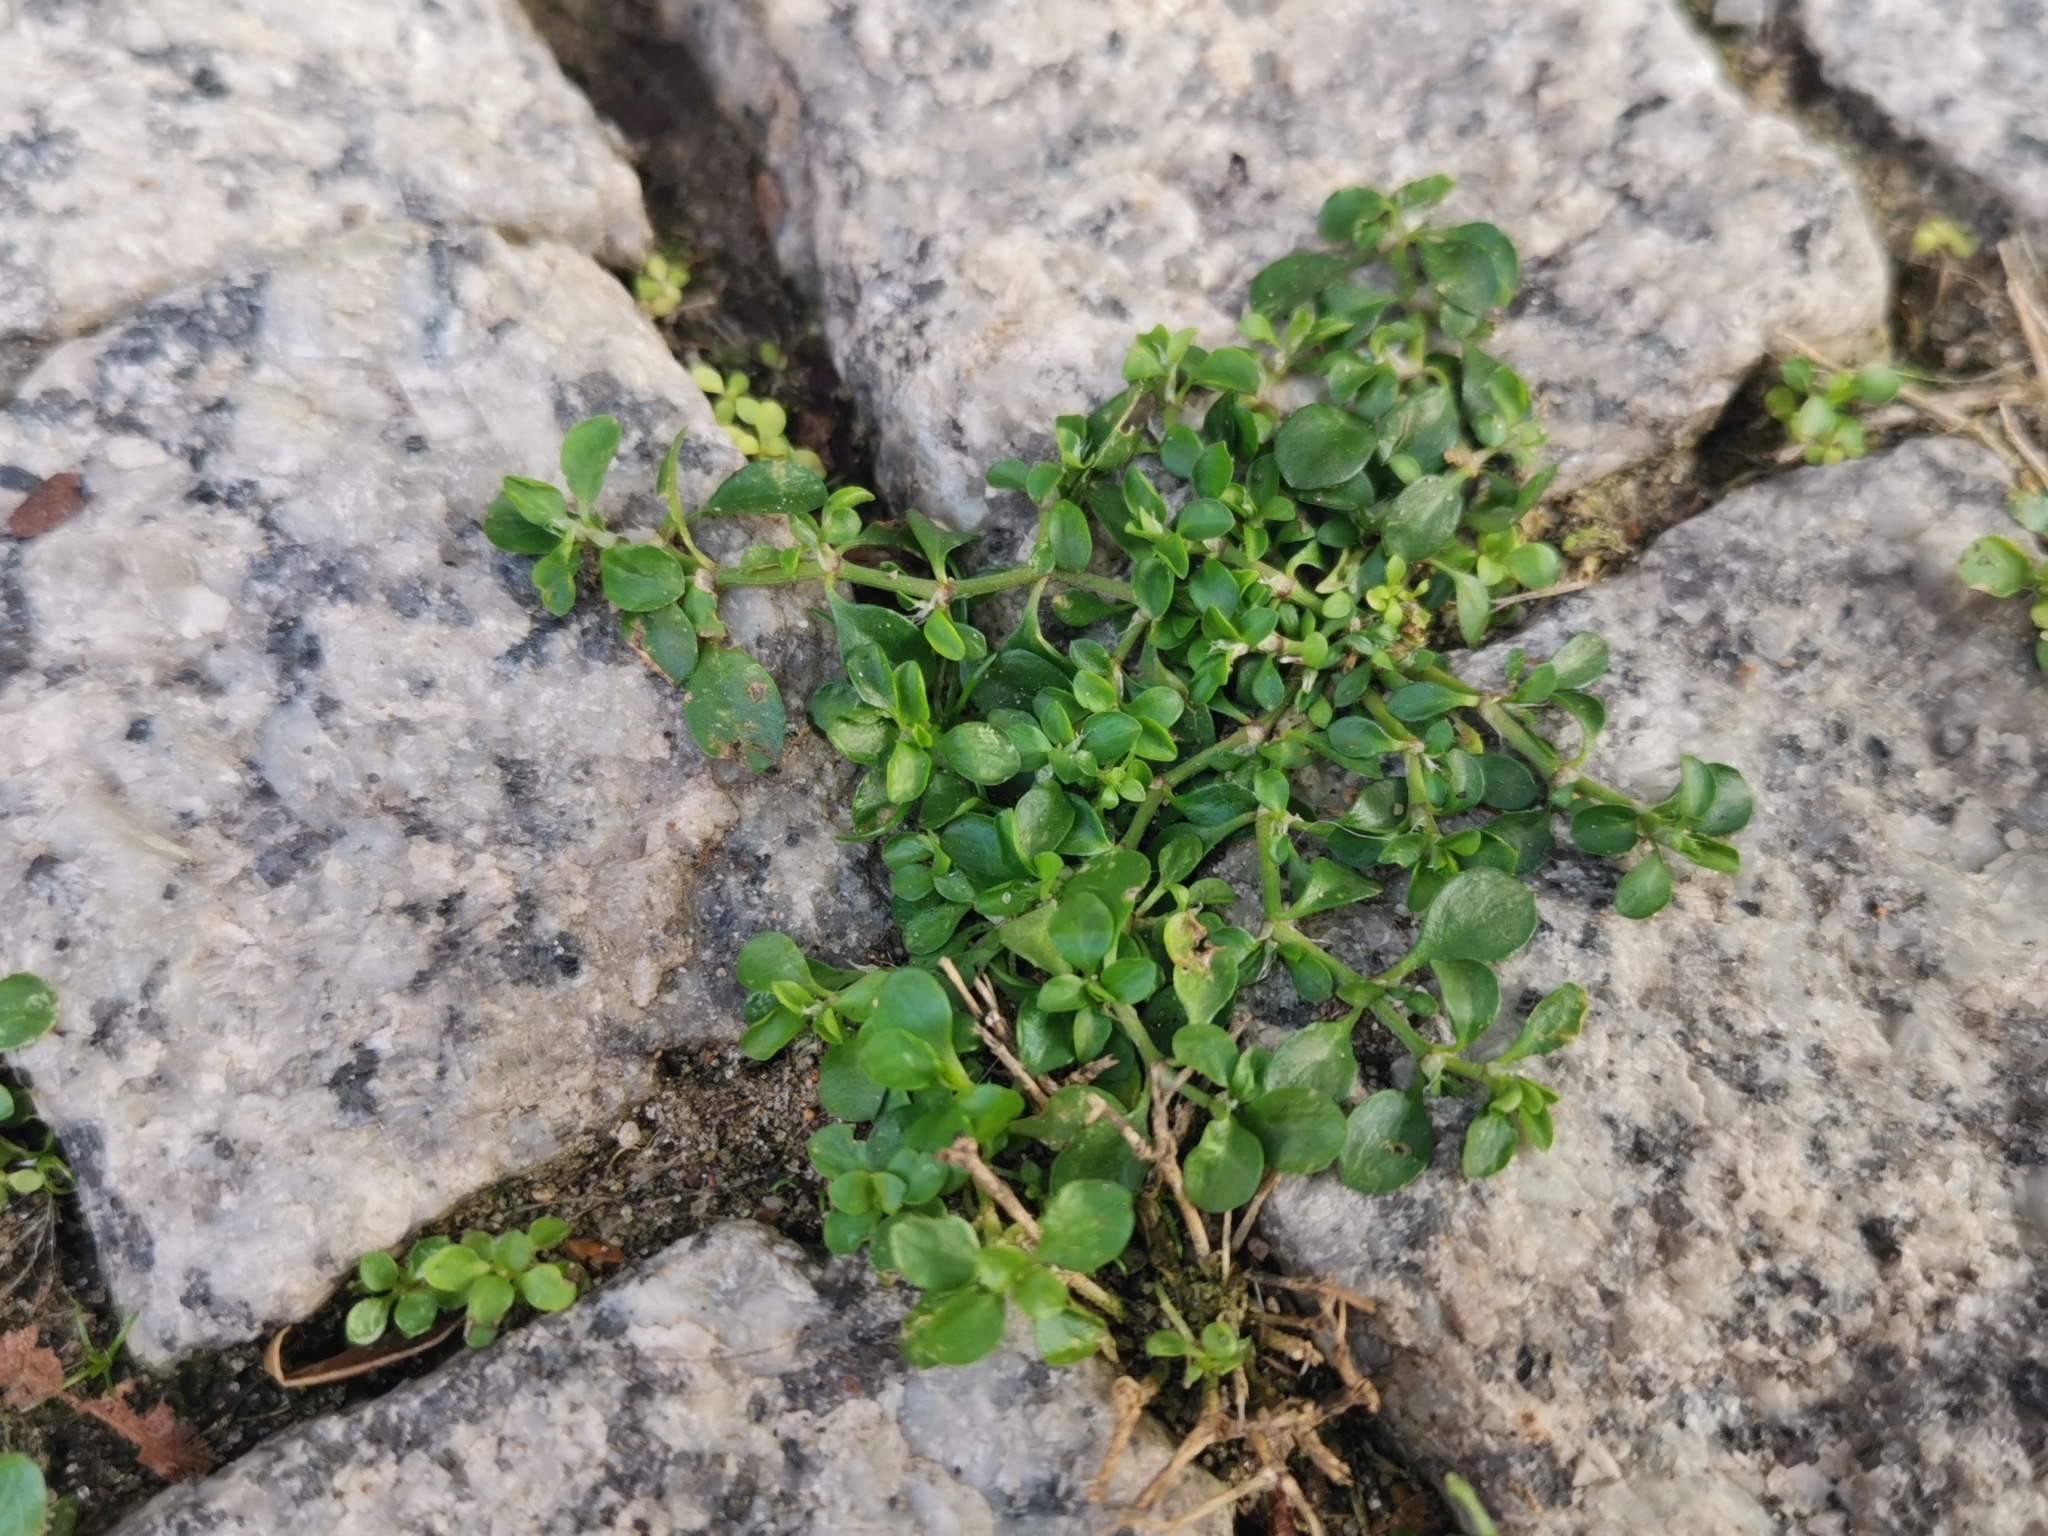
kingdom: Plantae
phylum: Tracheophyta
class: Magnoliopsida
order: Caryophyllales
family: Caryophyllaceae
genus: Polycarpon
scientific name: Polycarpon tetraphyllum
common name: Four-leaved all-seed
